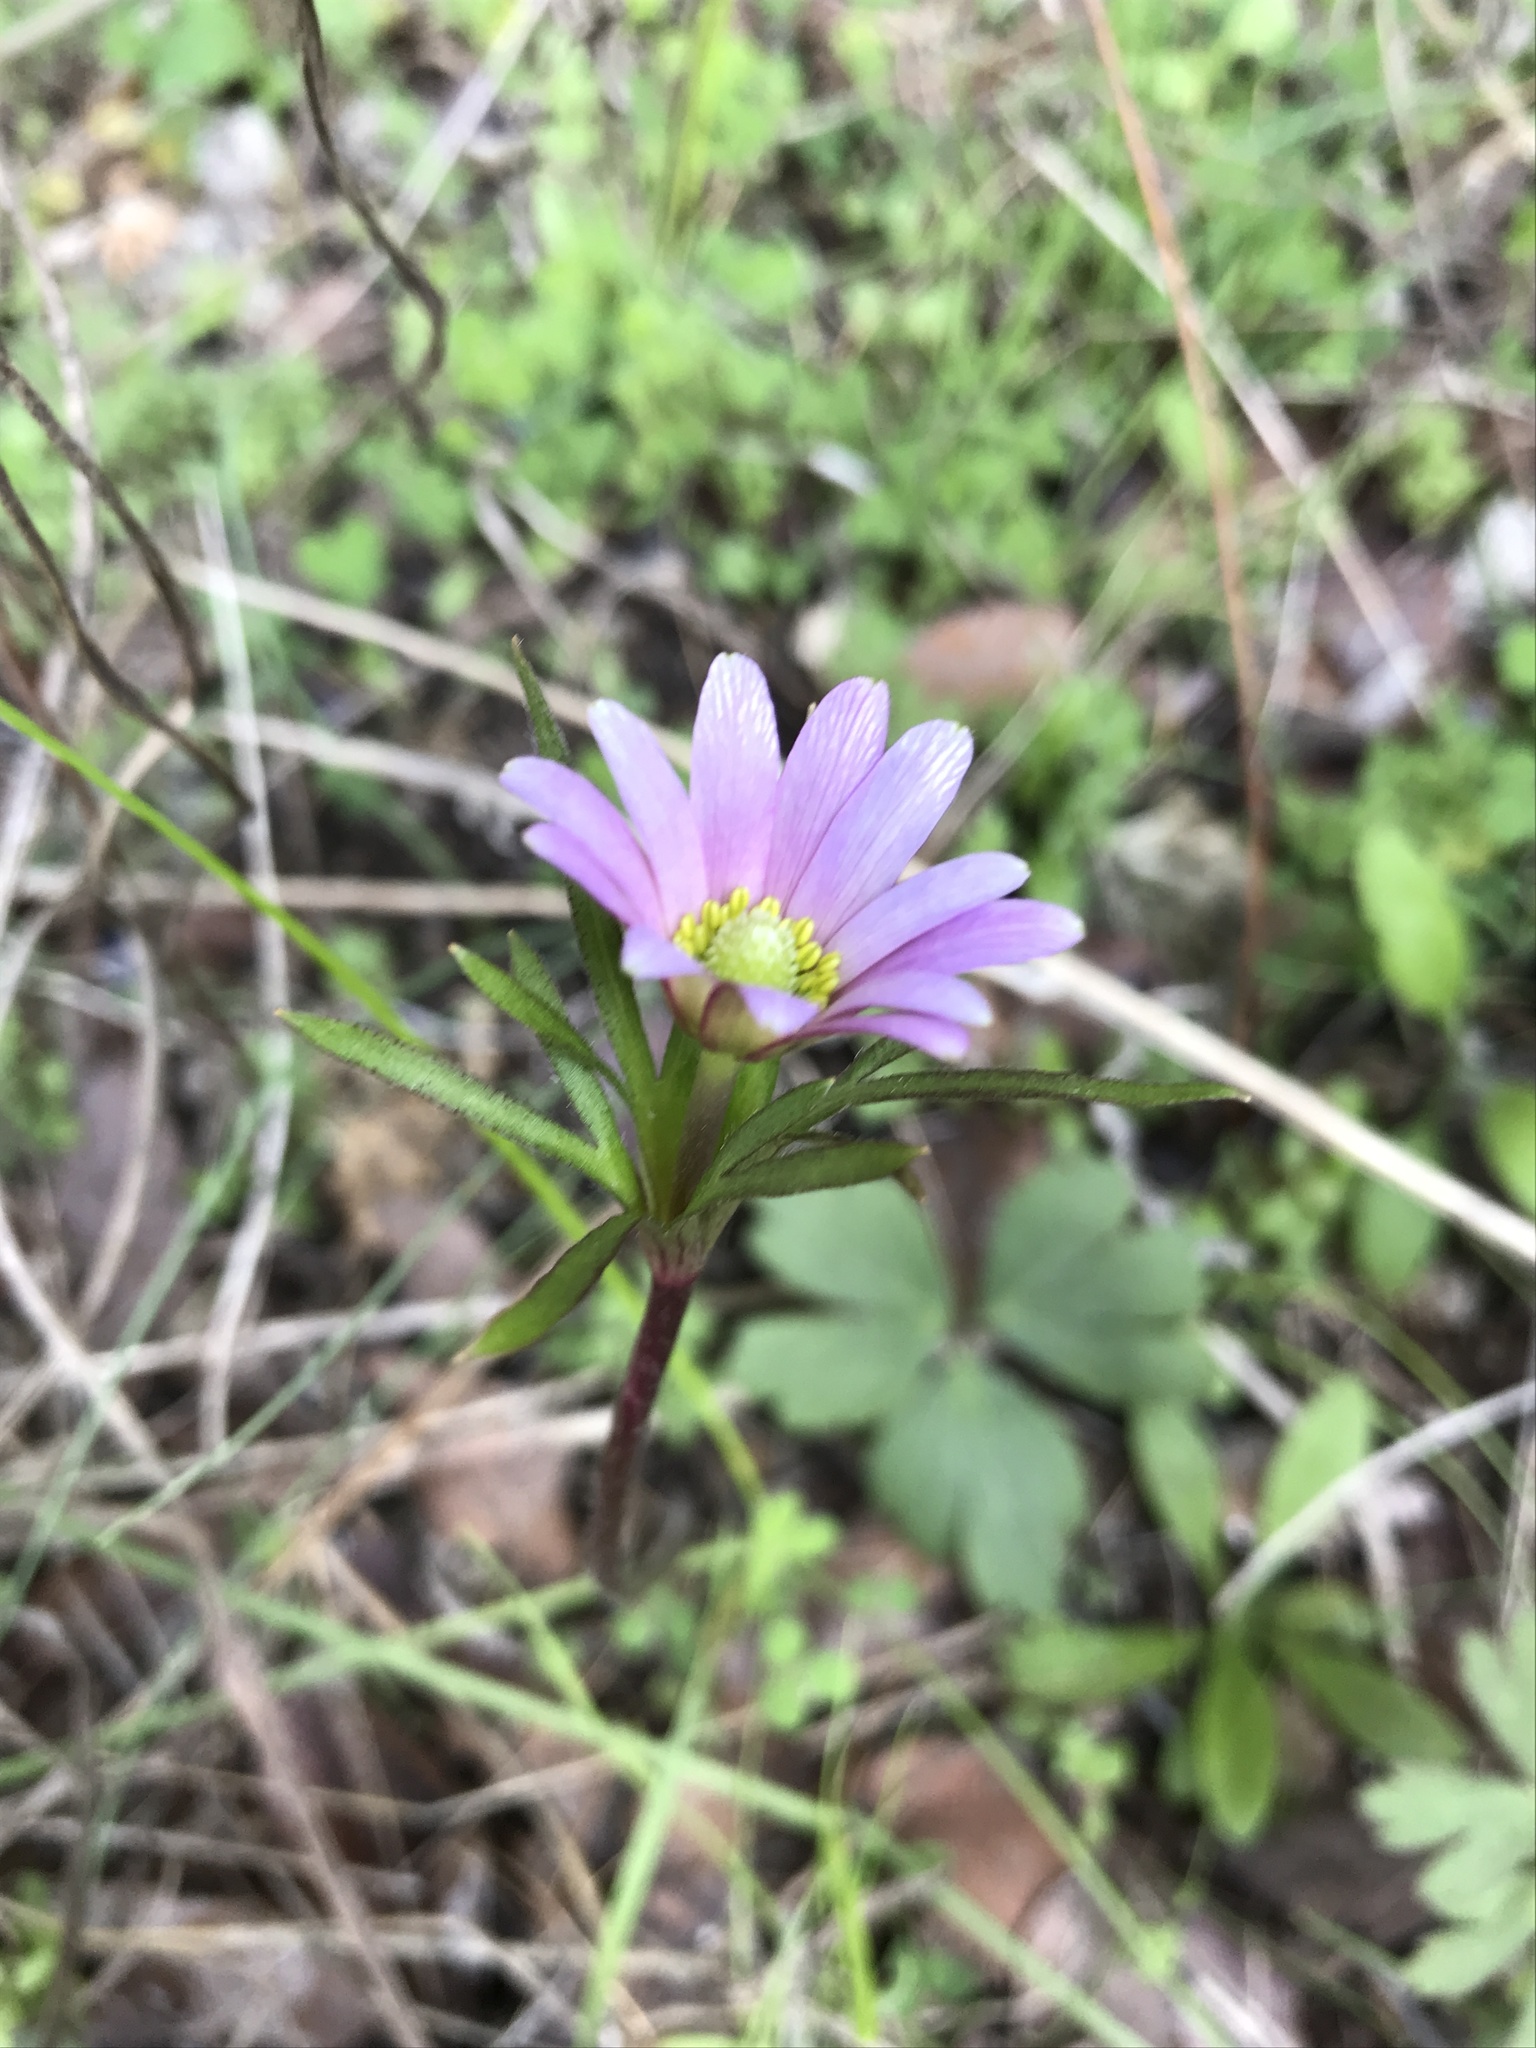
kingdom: Plantae
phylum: Tracheophyta
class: Magnoliopsida
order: Ranunculales
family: Ranunculaceae
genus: Anemone
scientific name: Anemone berlandieri
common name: Ten-petal anemone
